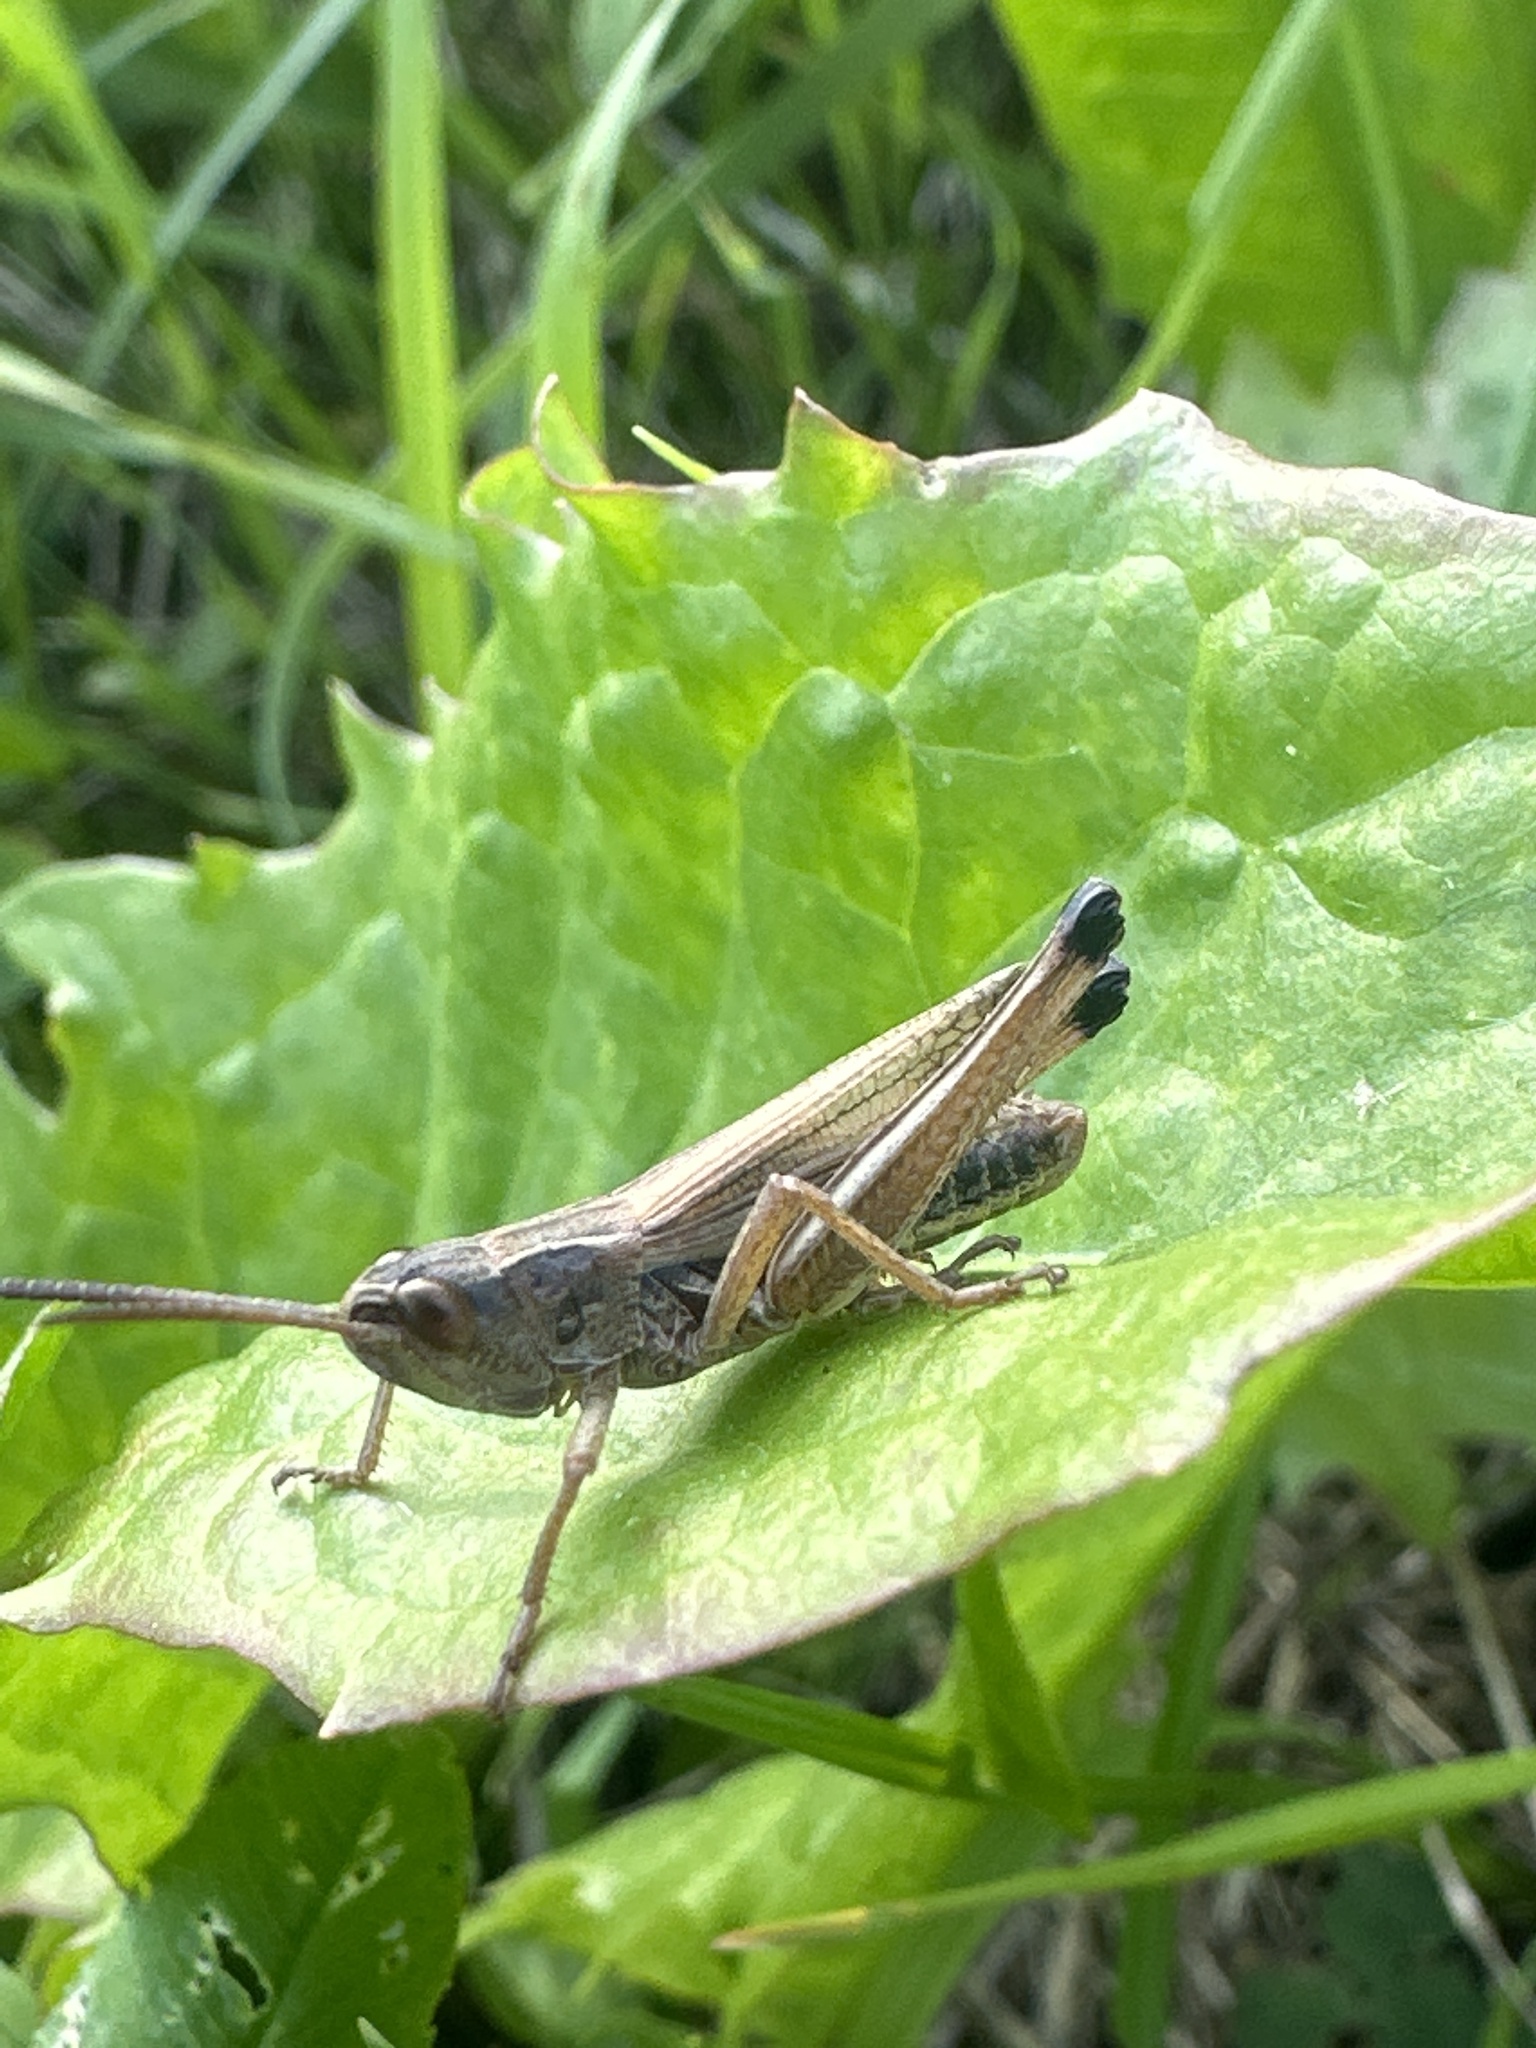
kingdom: Animalia
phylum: Arthropoda
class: Insecta
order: Orthoptera
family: Acrididae
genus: Pseudochorthippus
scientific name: Pseudochorthippus parallelus
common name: Meadow grasshopper
